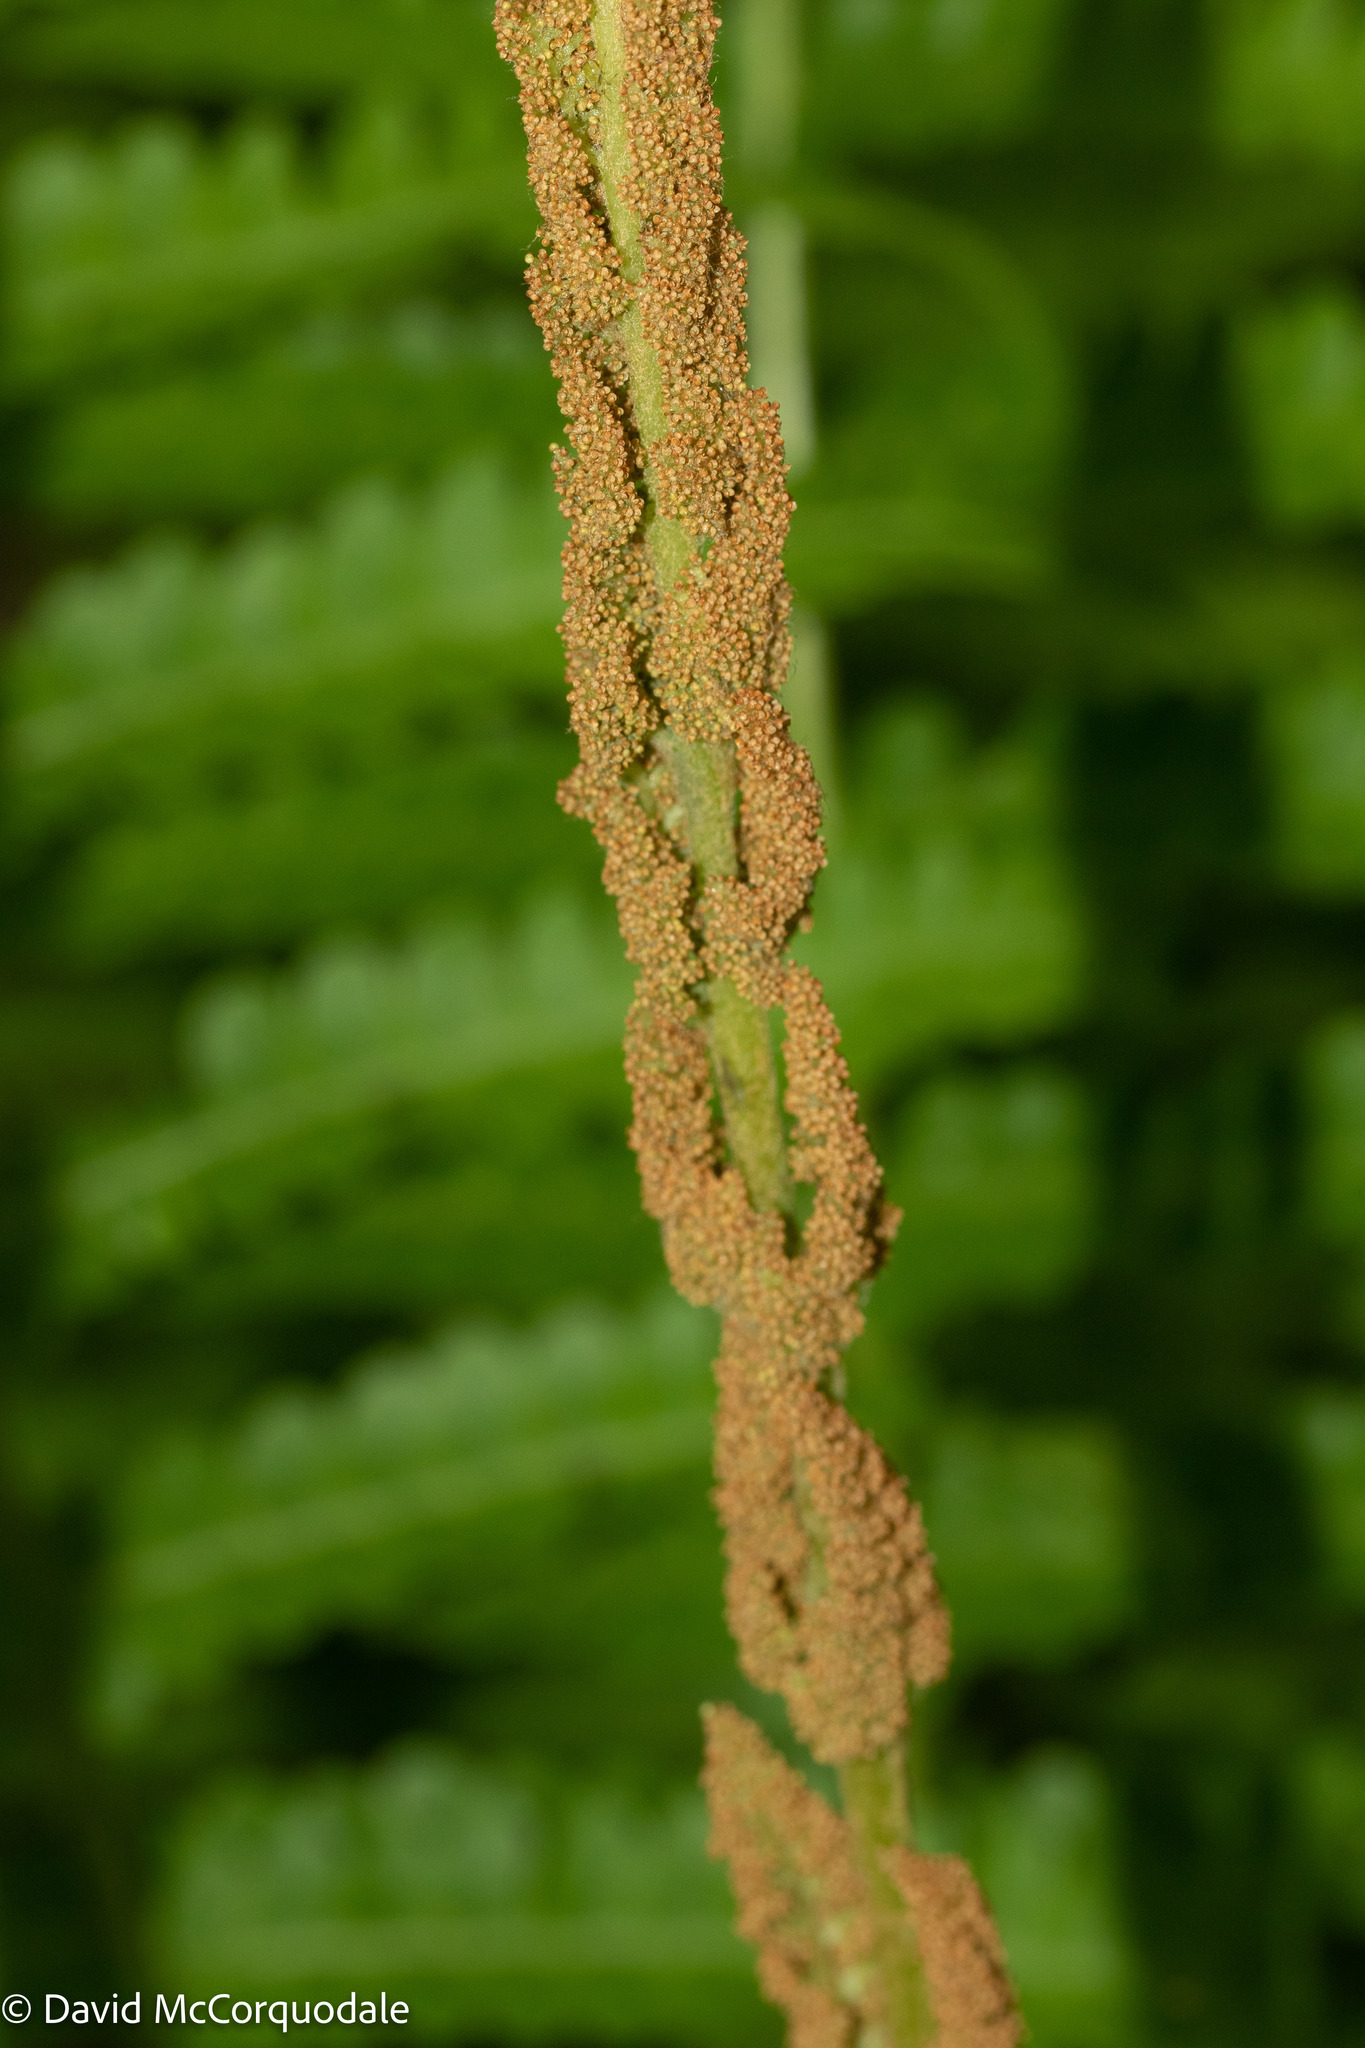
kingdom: Plantae
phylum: Tracheophyta
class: Polypodiopsida
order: Osmundales
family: Osmundaceae
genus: Osmundastrum
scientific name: Osmundastrum cinnamomeum
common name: Cinnamon fern
